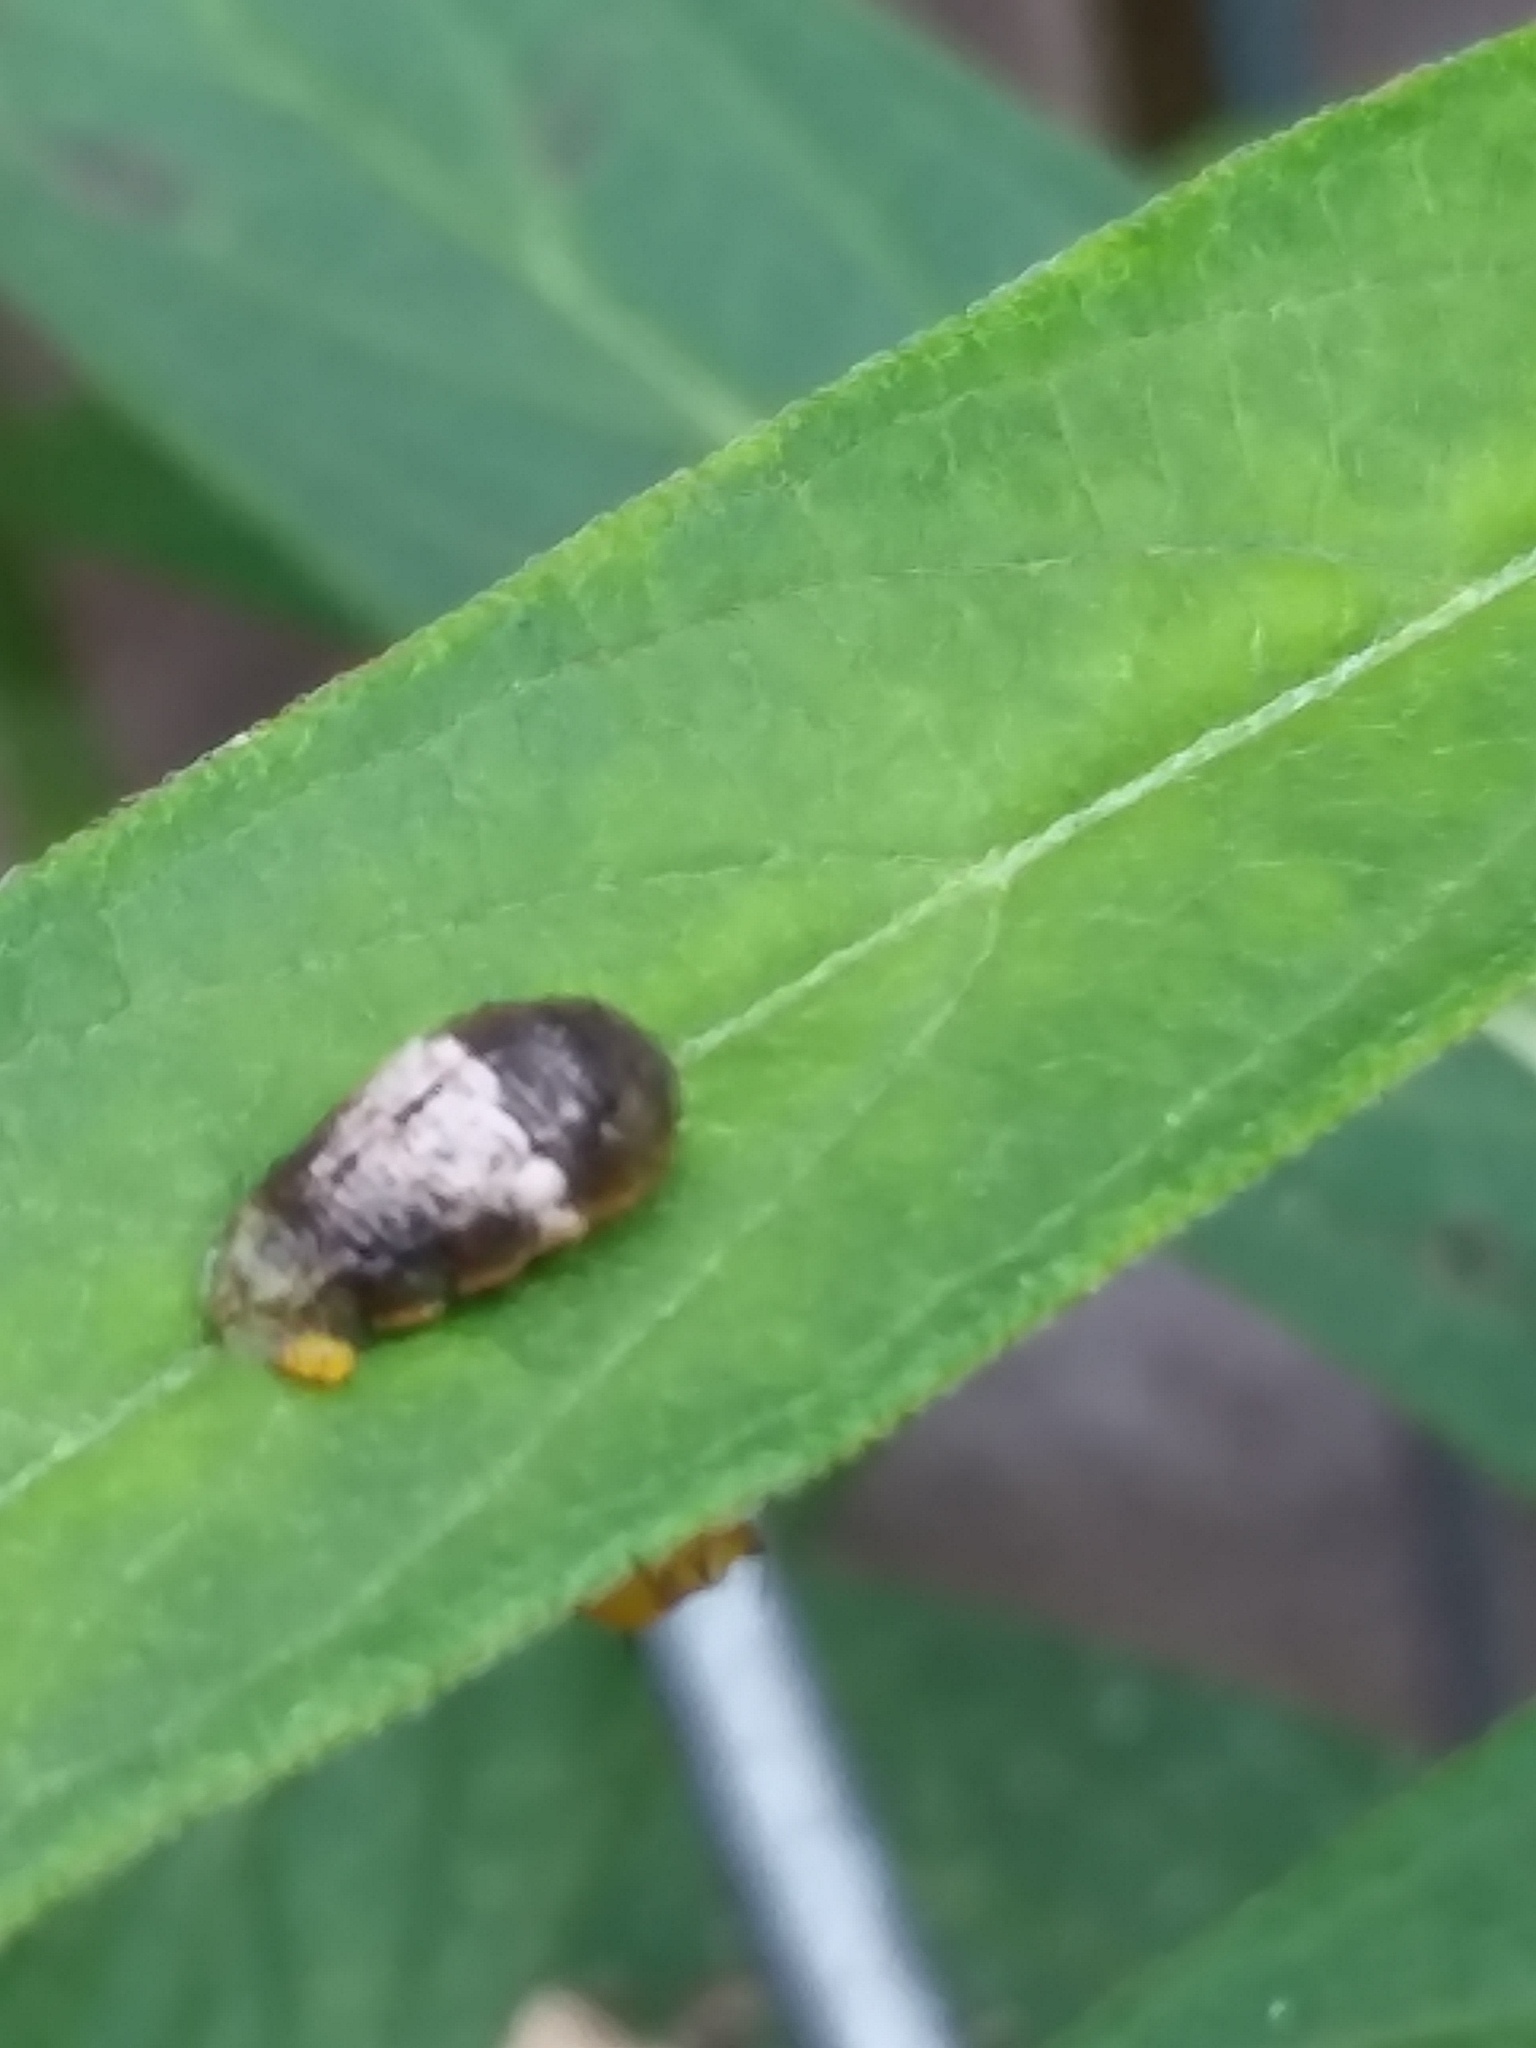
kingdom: Animalia
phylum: Arthropoda
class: Insecta
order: Diptera
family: Syrphidae
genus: Ocyptamus
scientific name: Ocyptamus fuscipennis
